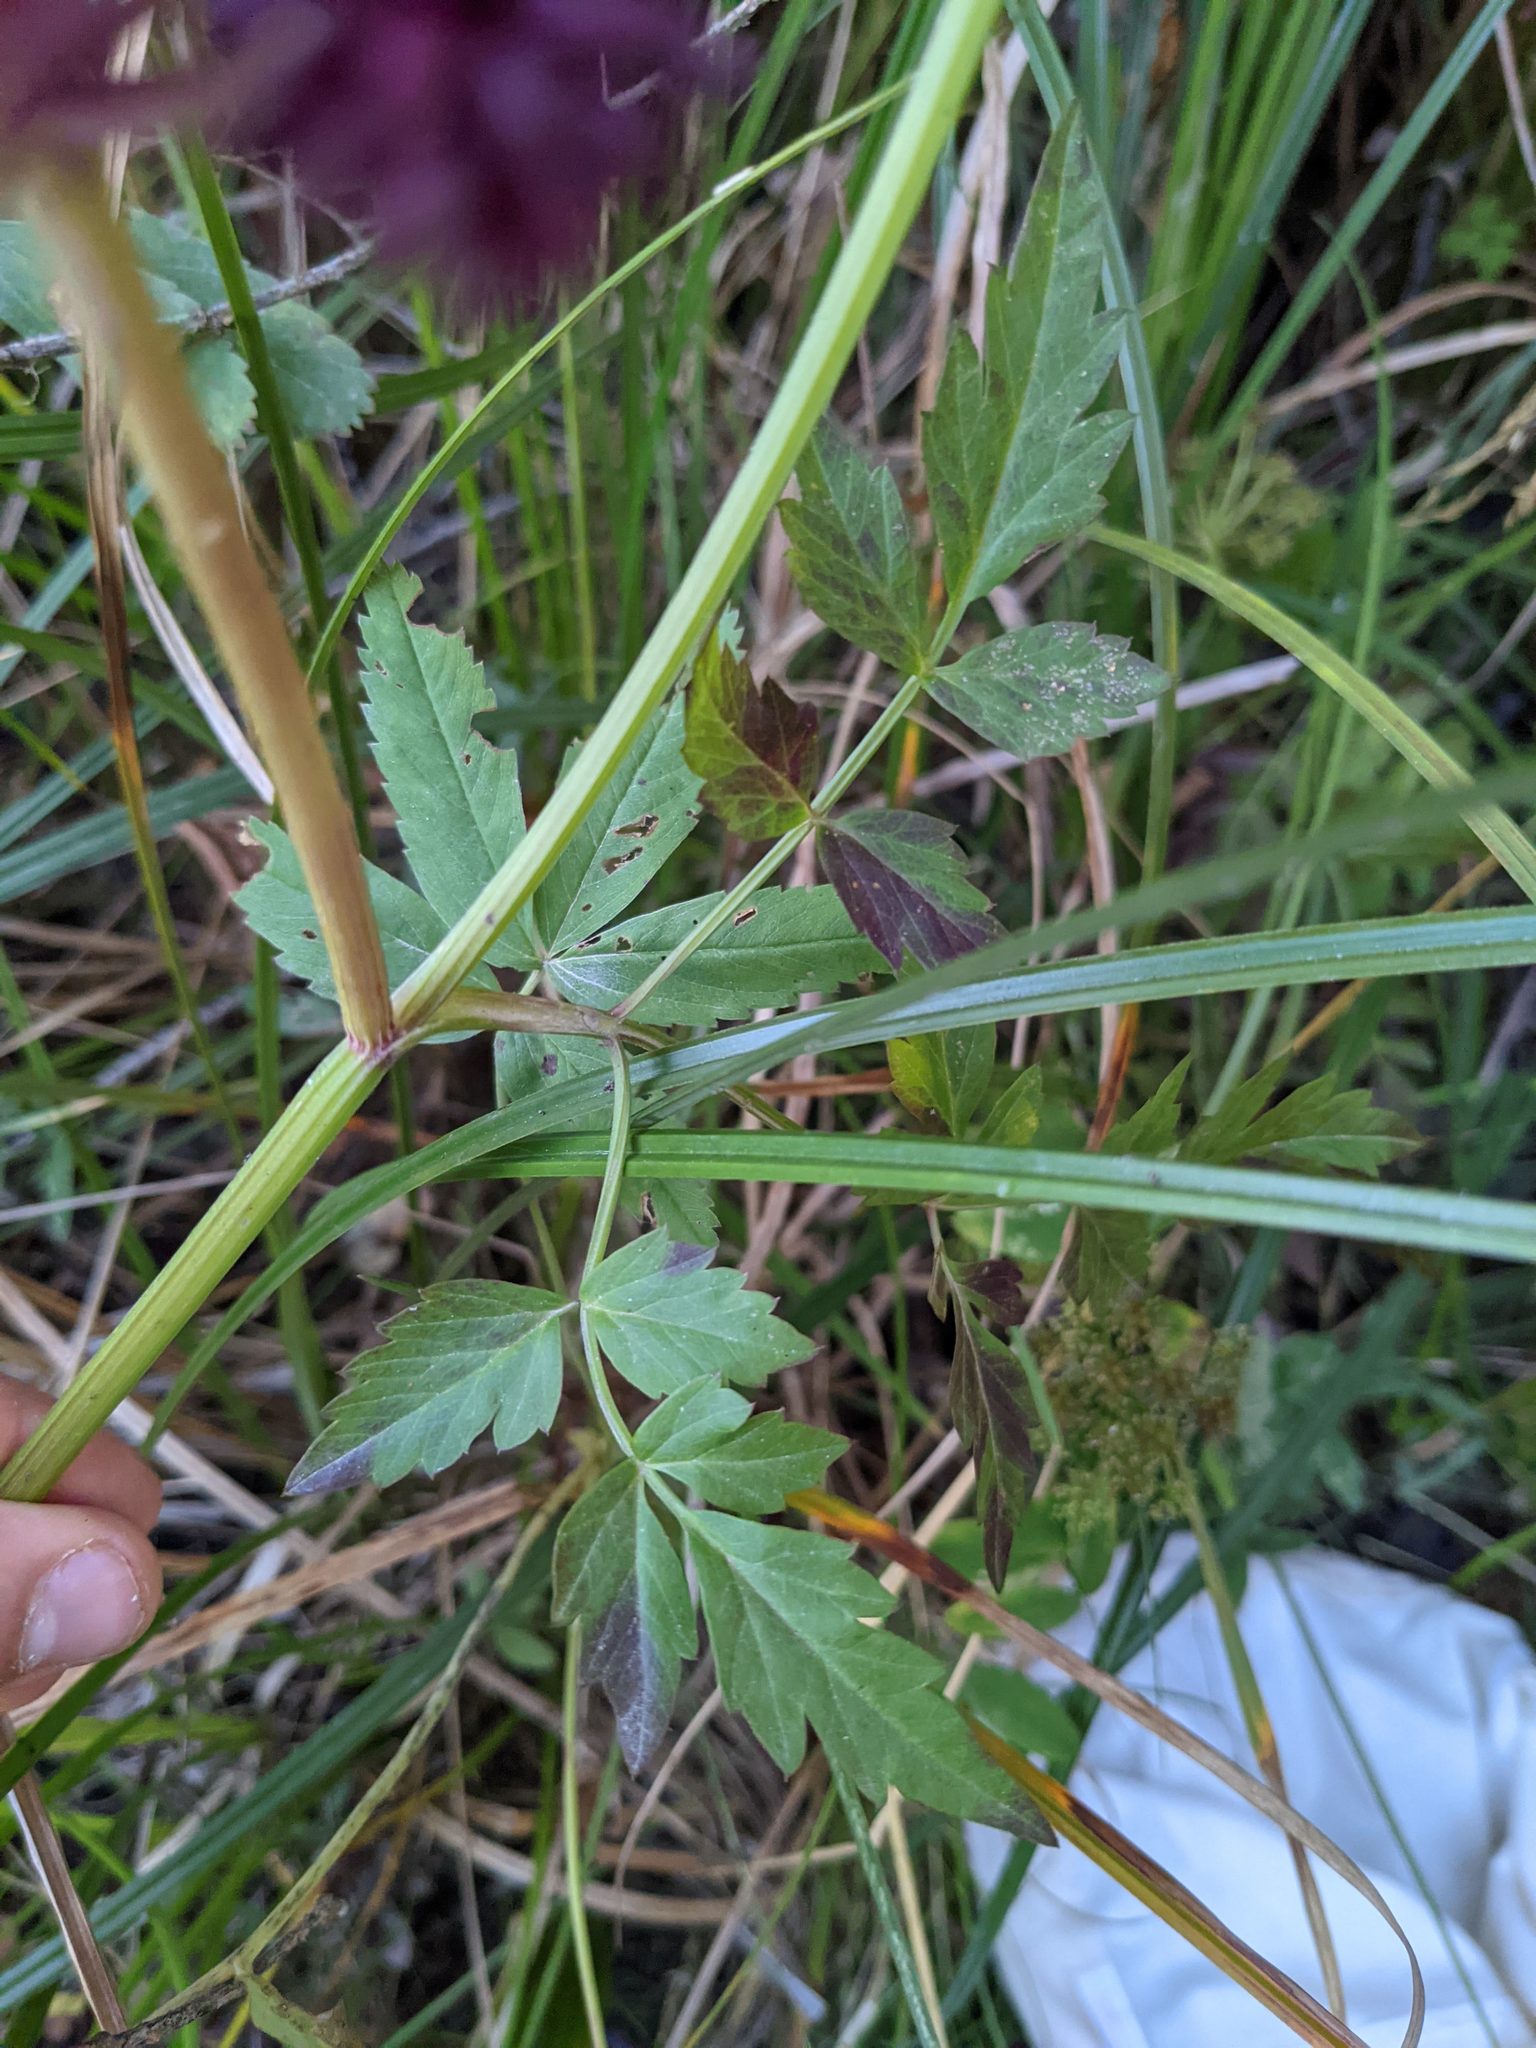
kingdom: Plantae
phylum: Tracheophyta
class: Magnoliopsida
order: Apiales
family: Apiaceae
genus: Oenanthe
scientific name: Oenanthe sarmentosa
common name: American water-parsley
